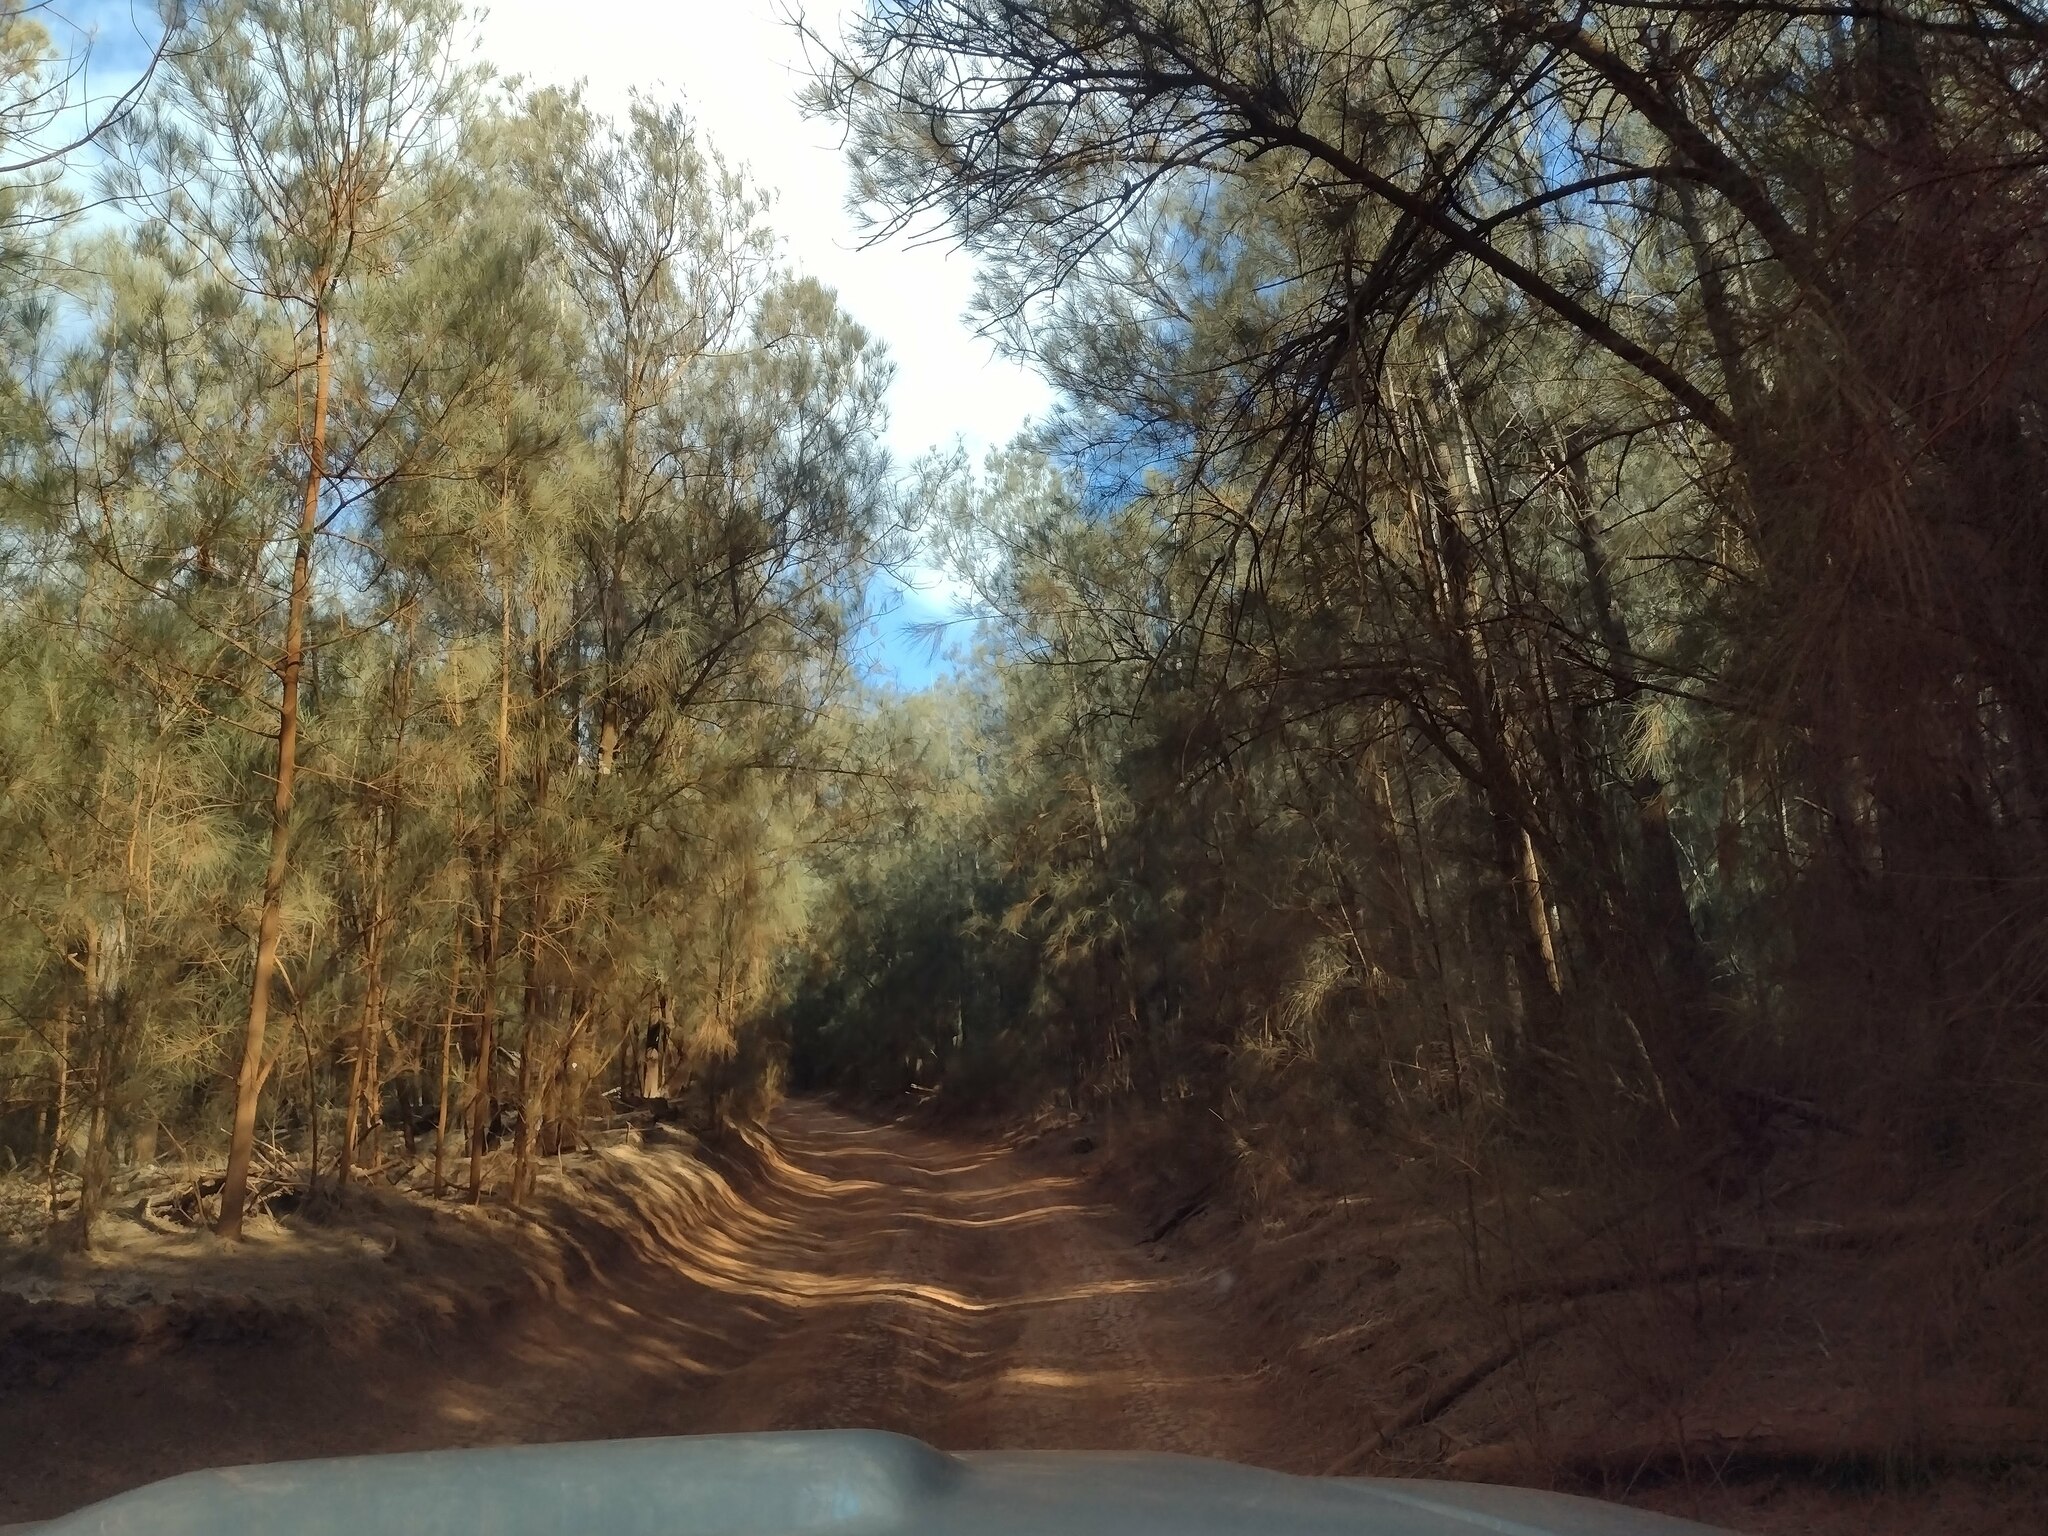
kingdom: Plantae
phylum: Tracheophyta
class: Magnoliopsida
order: Fagales
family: Casuarinaceae
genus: Casuarina
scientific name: Casuarina equisetifolia
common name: Beach sheoak
